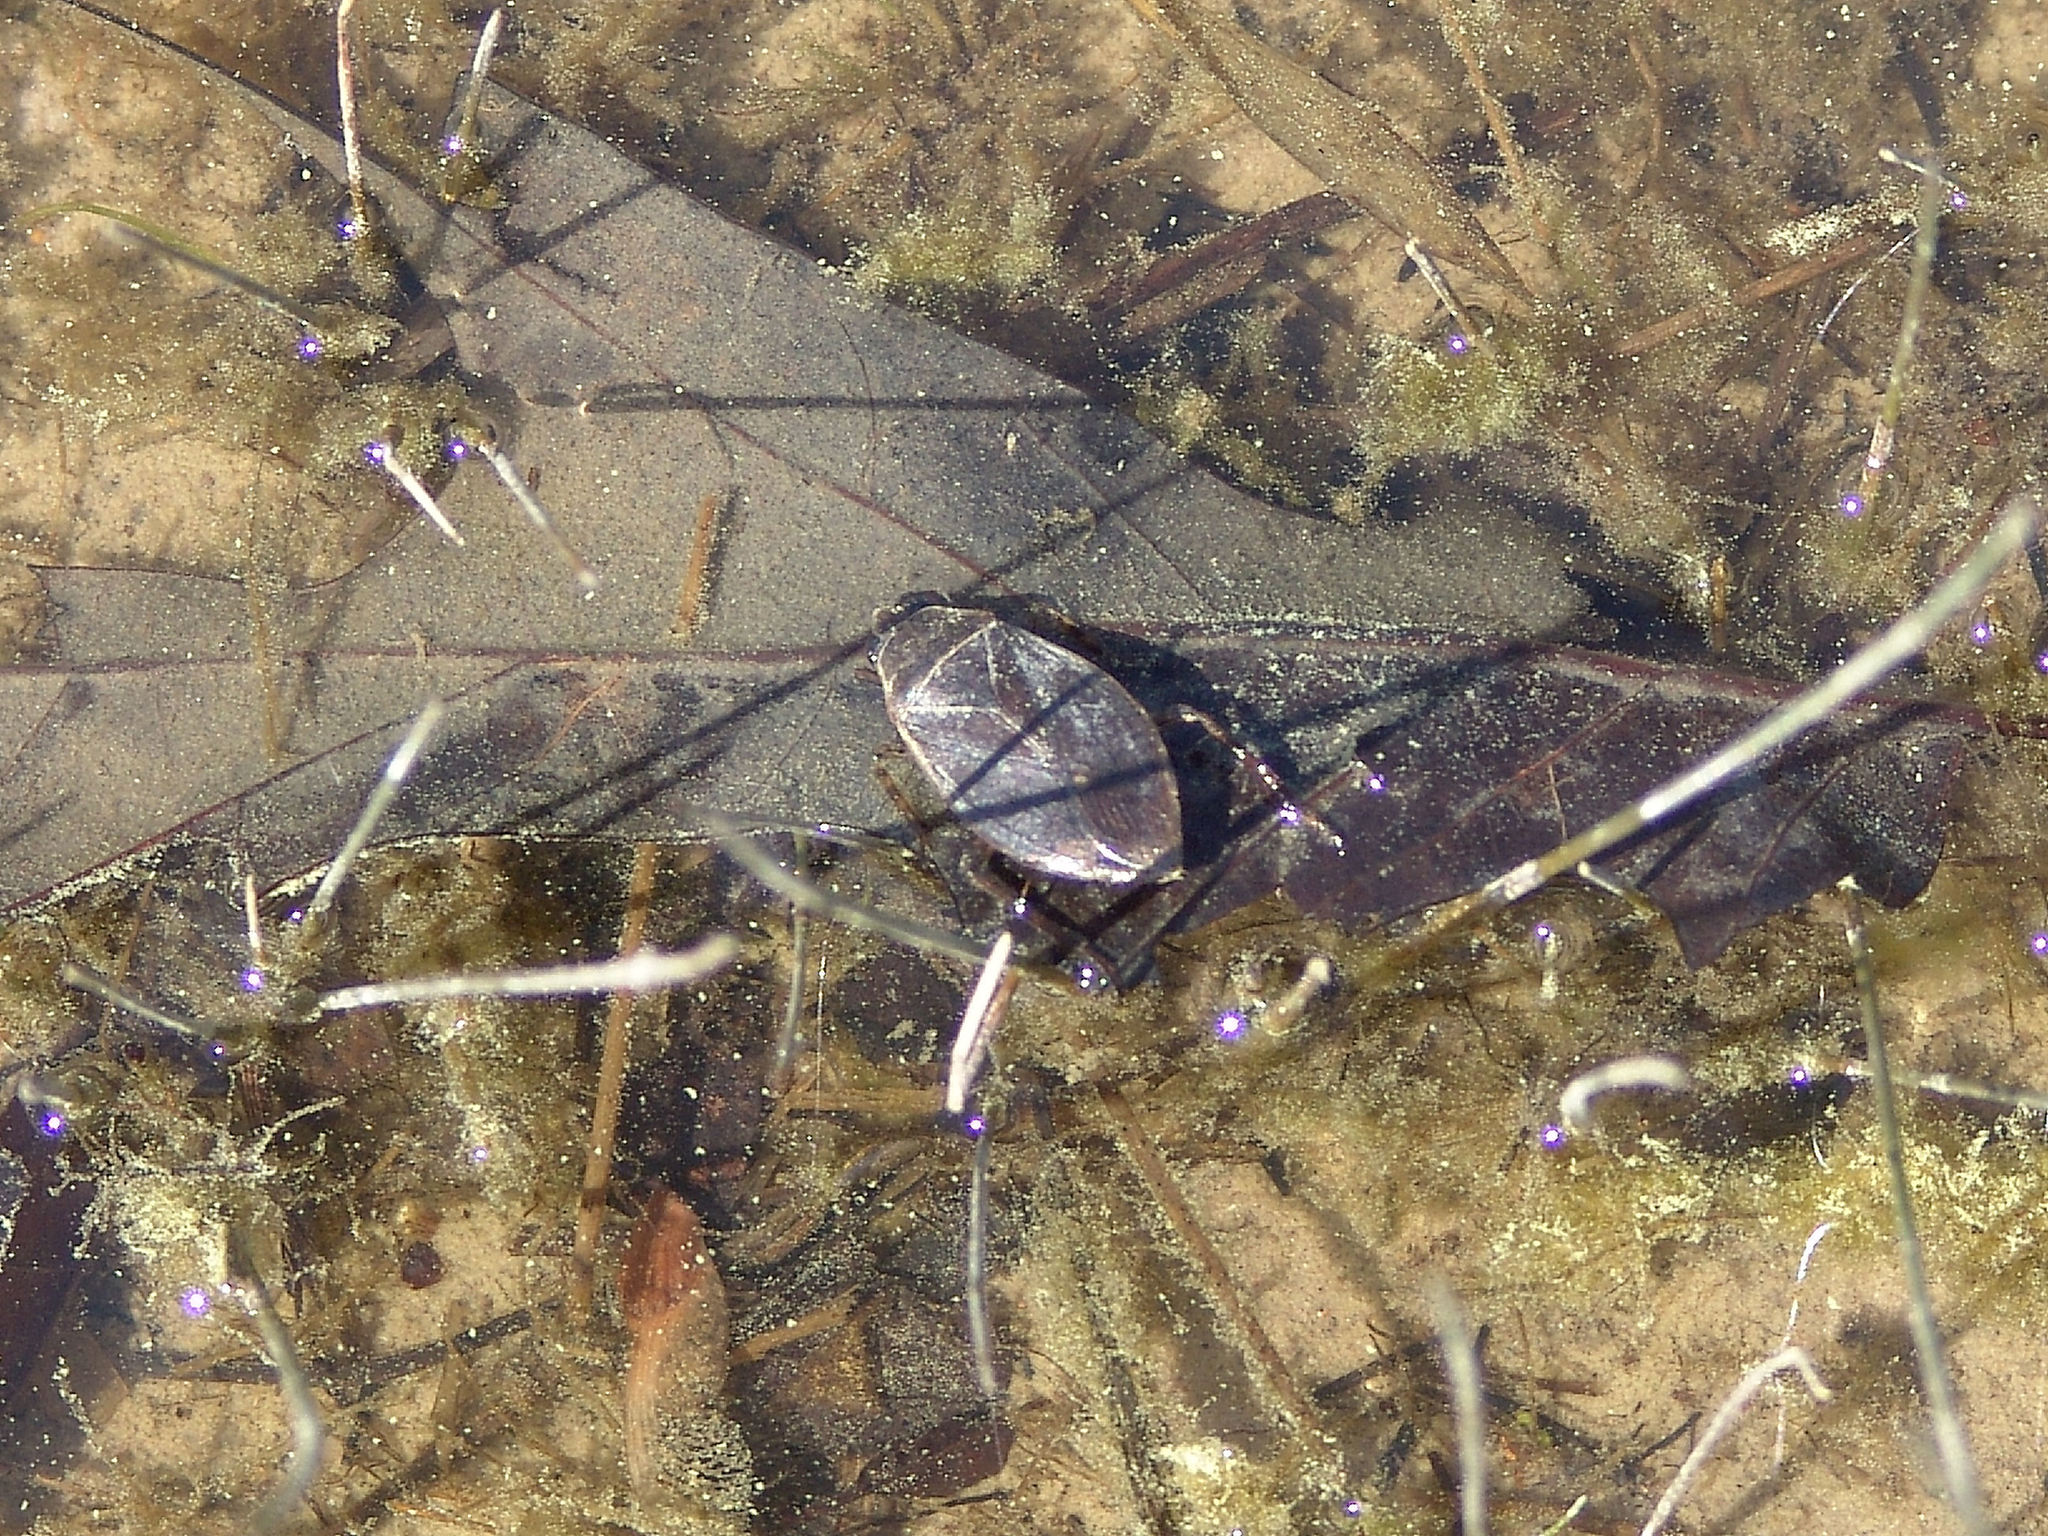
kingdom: Animalia
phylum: Arthropoda
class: Insecta
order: Hemiptera
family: Belostomatidae
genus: Belostoma
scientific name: Belostoma
